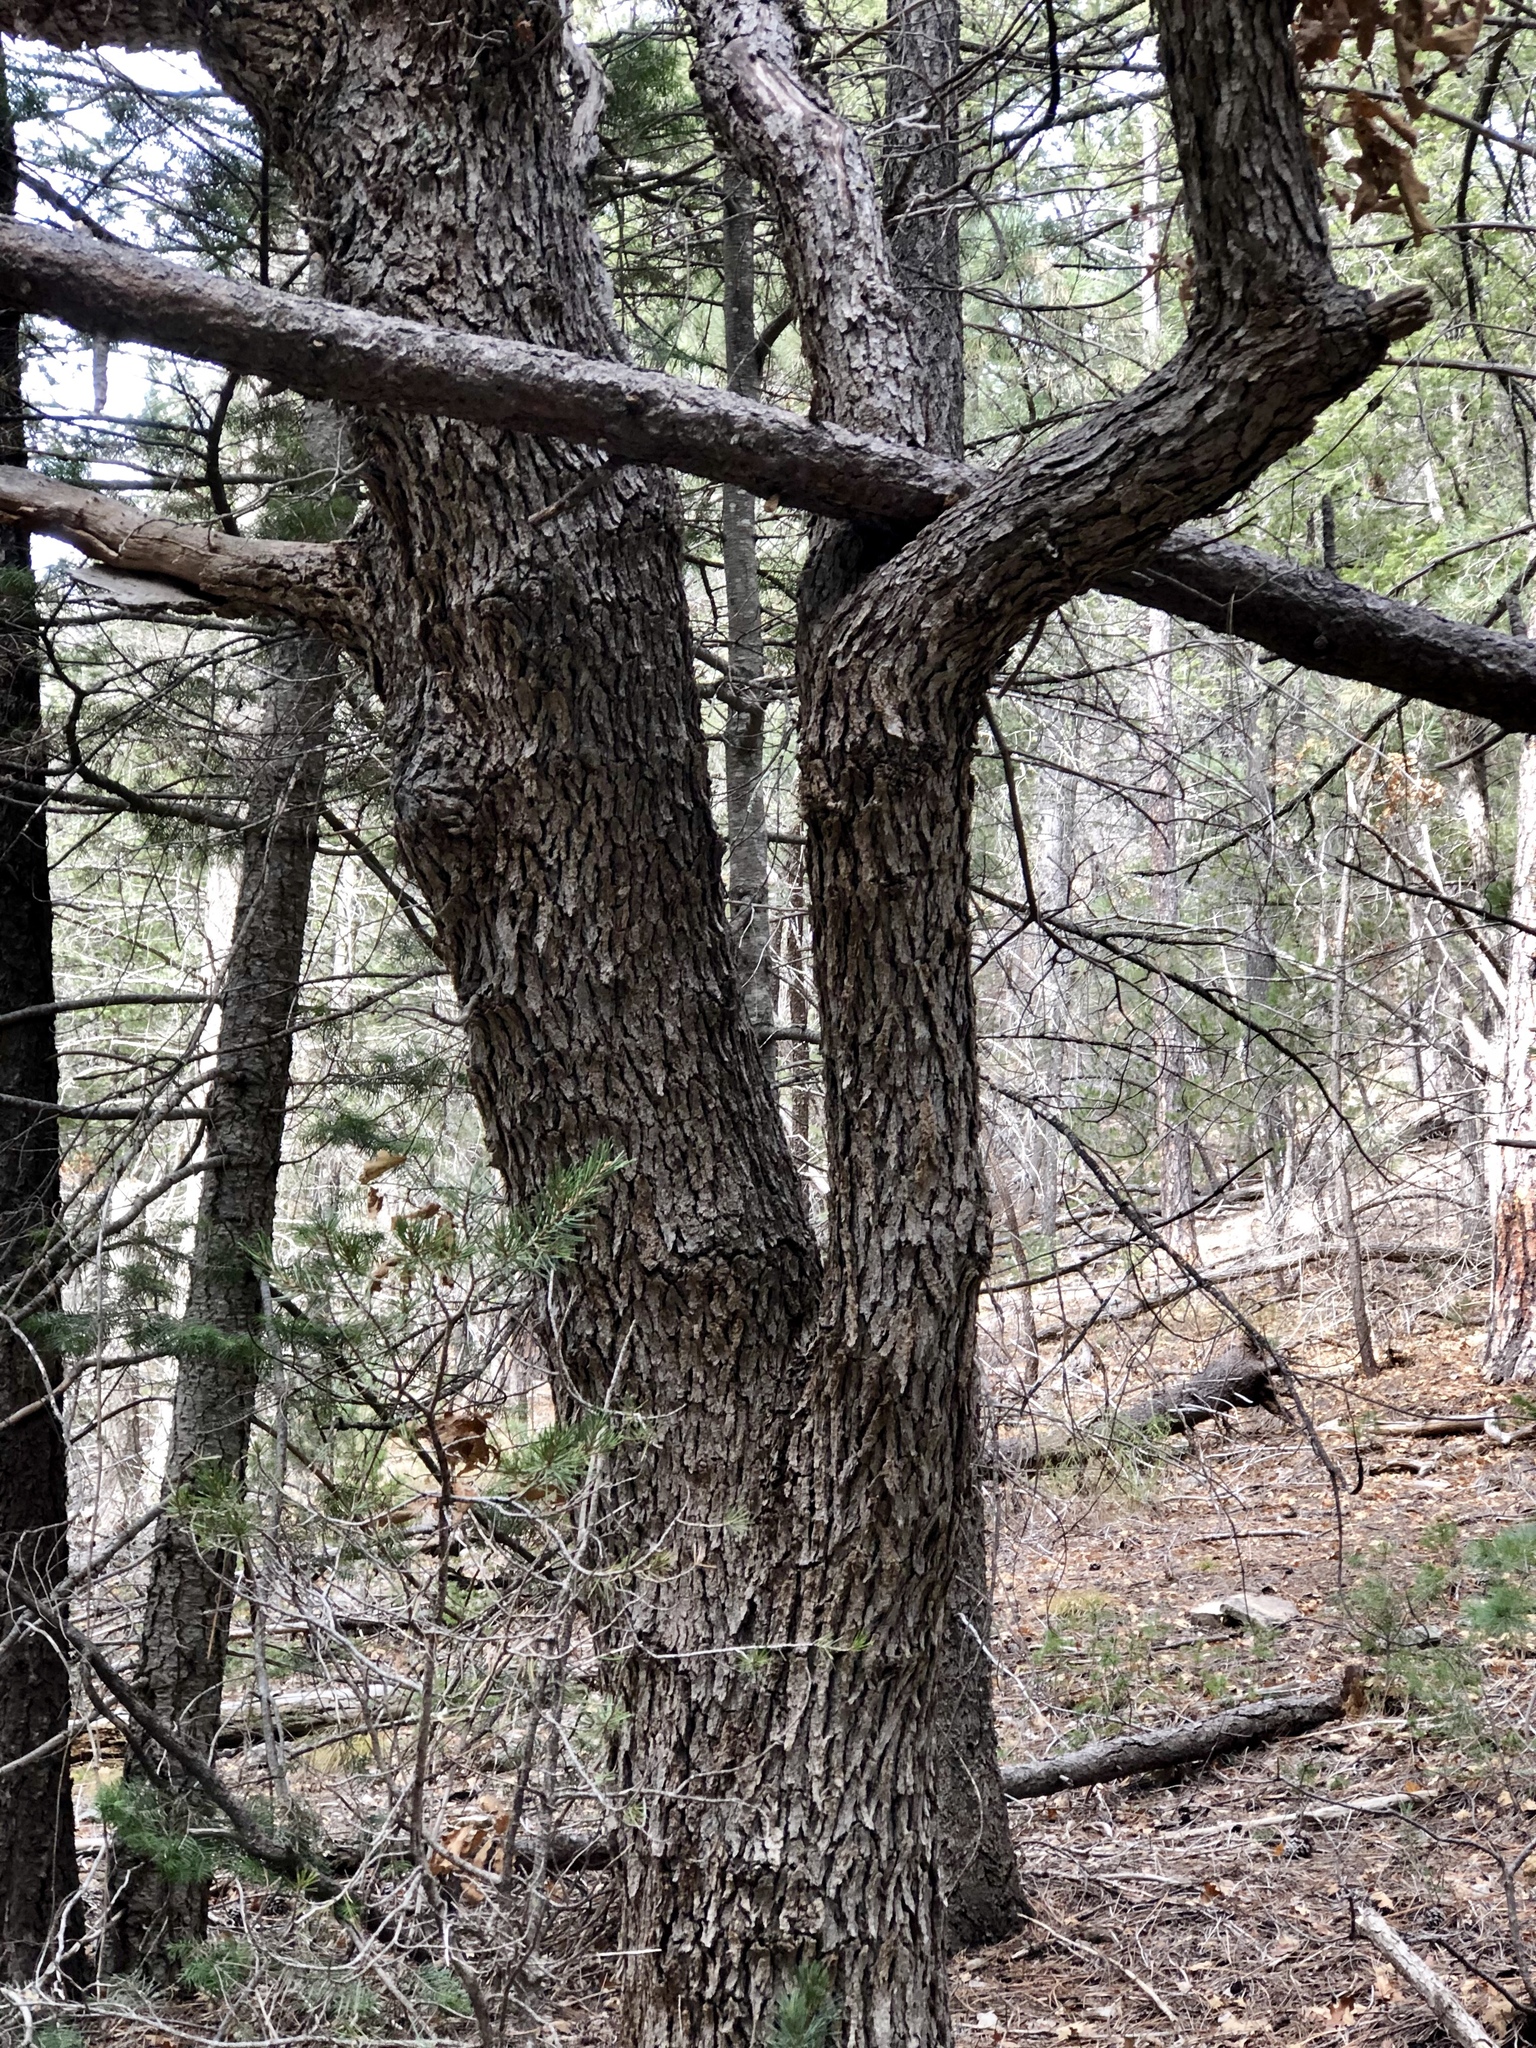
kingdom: Plantae
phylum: Tracheophyta
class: Magnoliopsida
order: Fagales
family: Fagaceae
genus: Quercus
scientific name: Quercus gambelii
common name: Gambel oak
